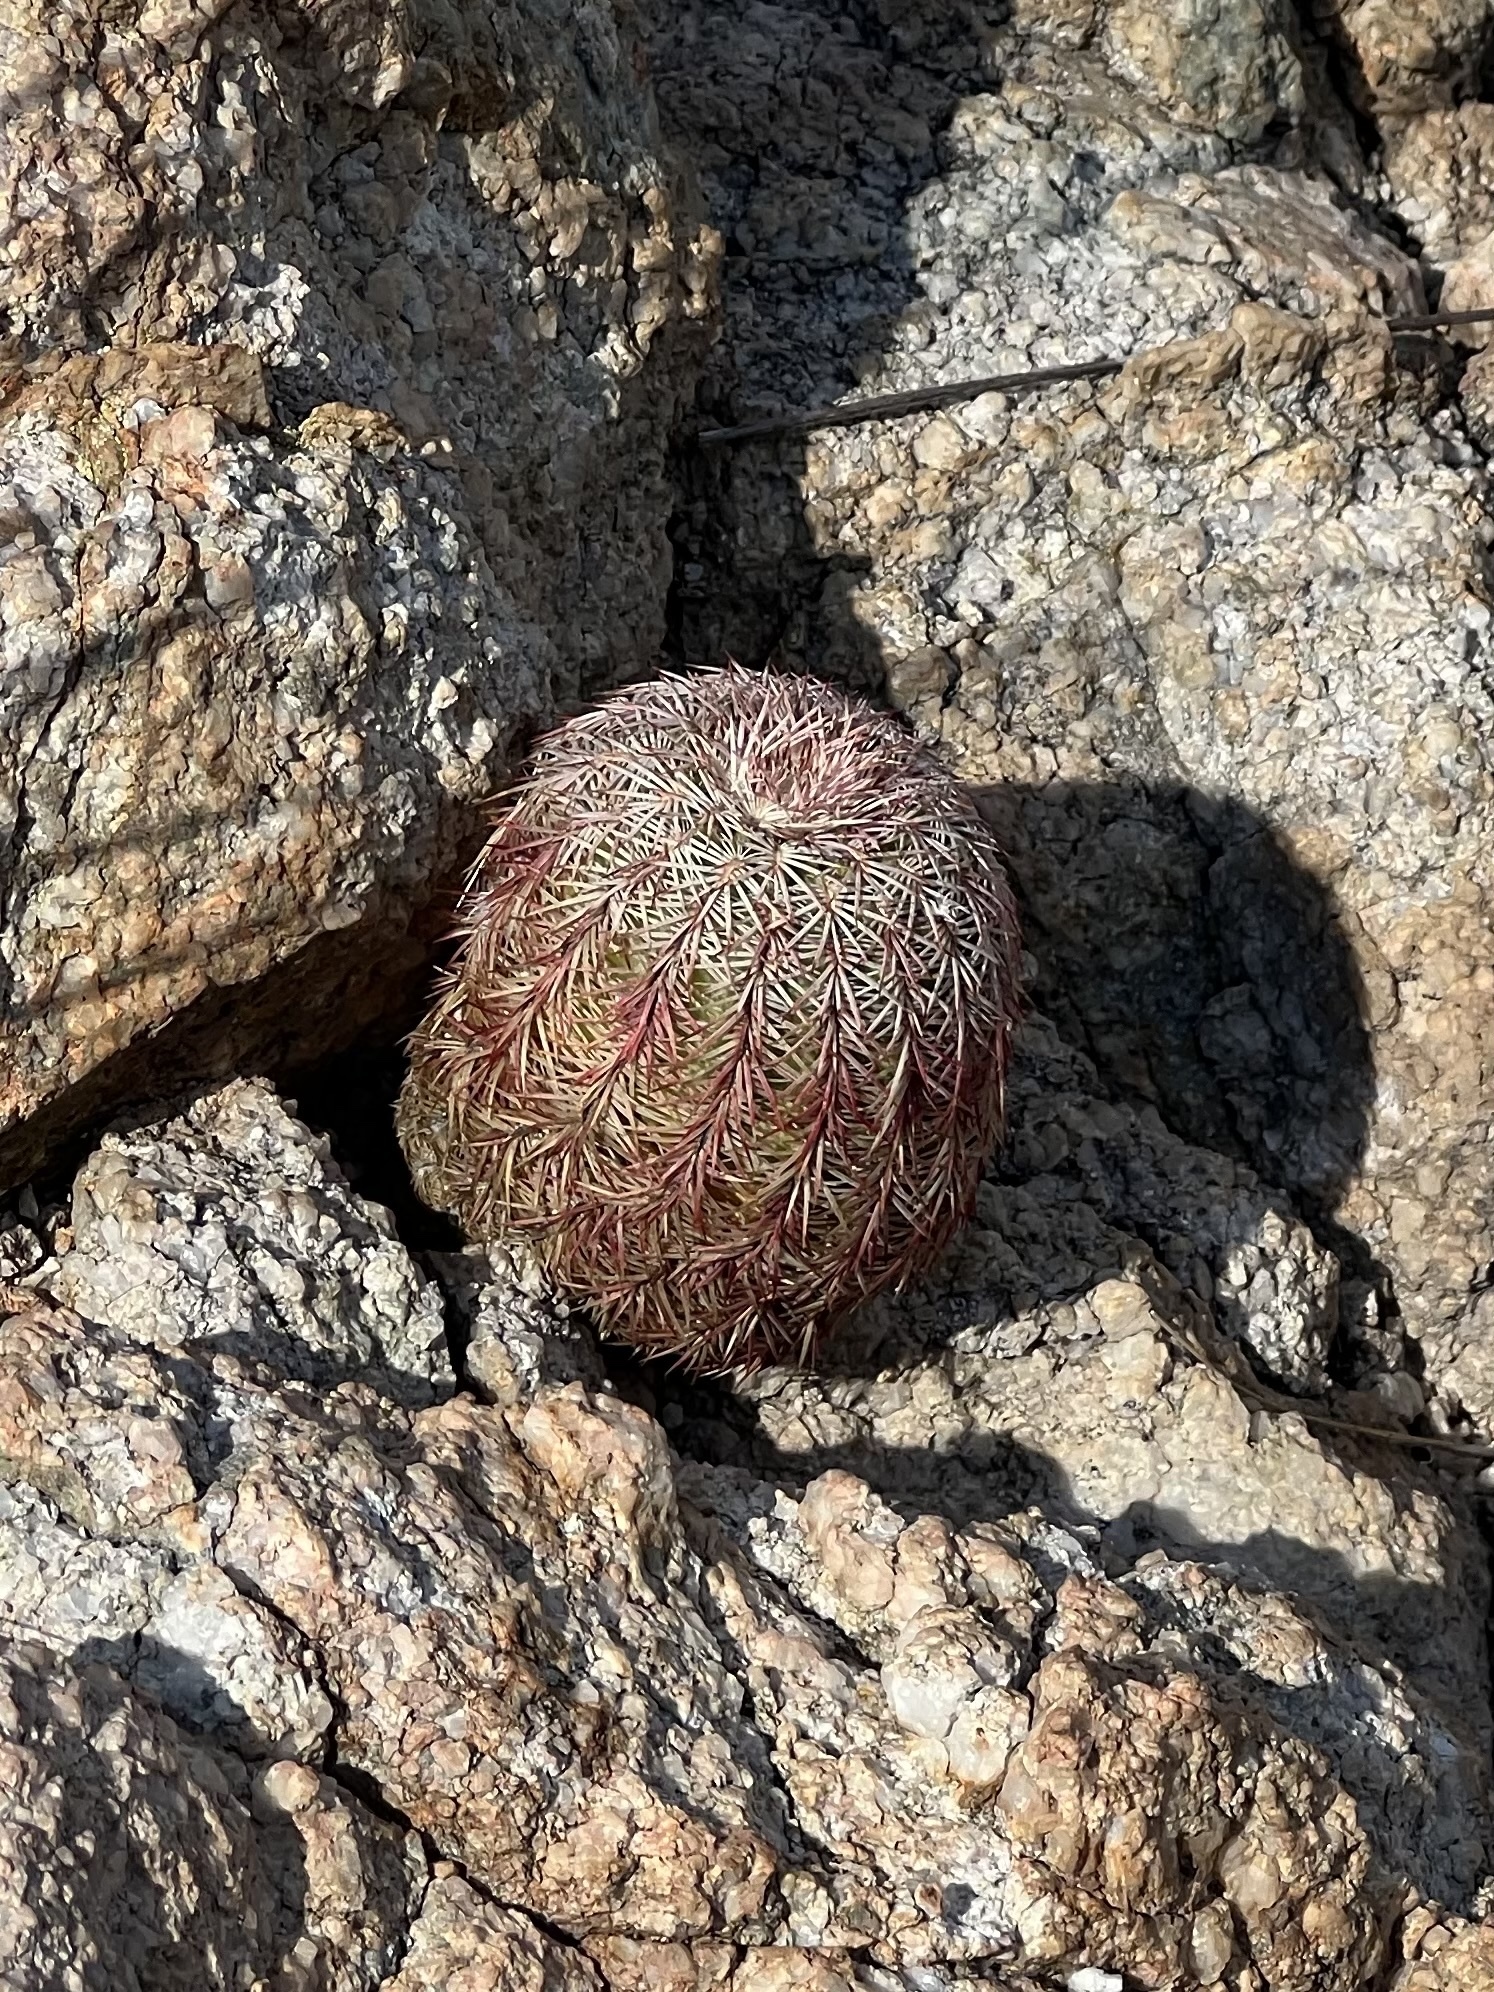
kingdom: Plantae
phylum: Tracheophyta
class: Magnoliopsida
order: Caryophyllales
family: Cactaceae
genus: Echinocereus
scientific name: Echinocereus rigidissimus
